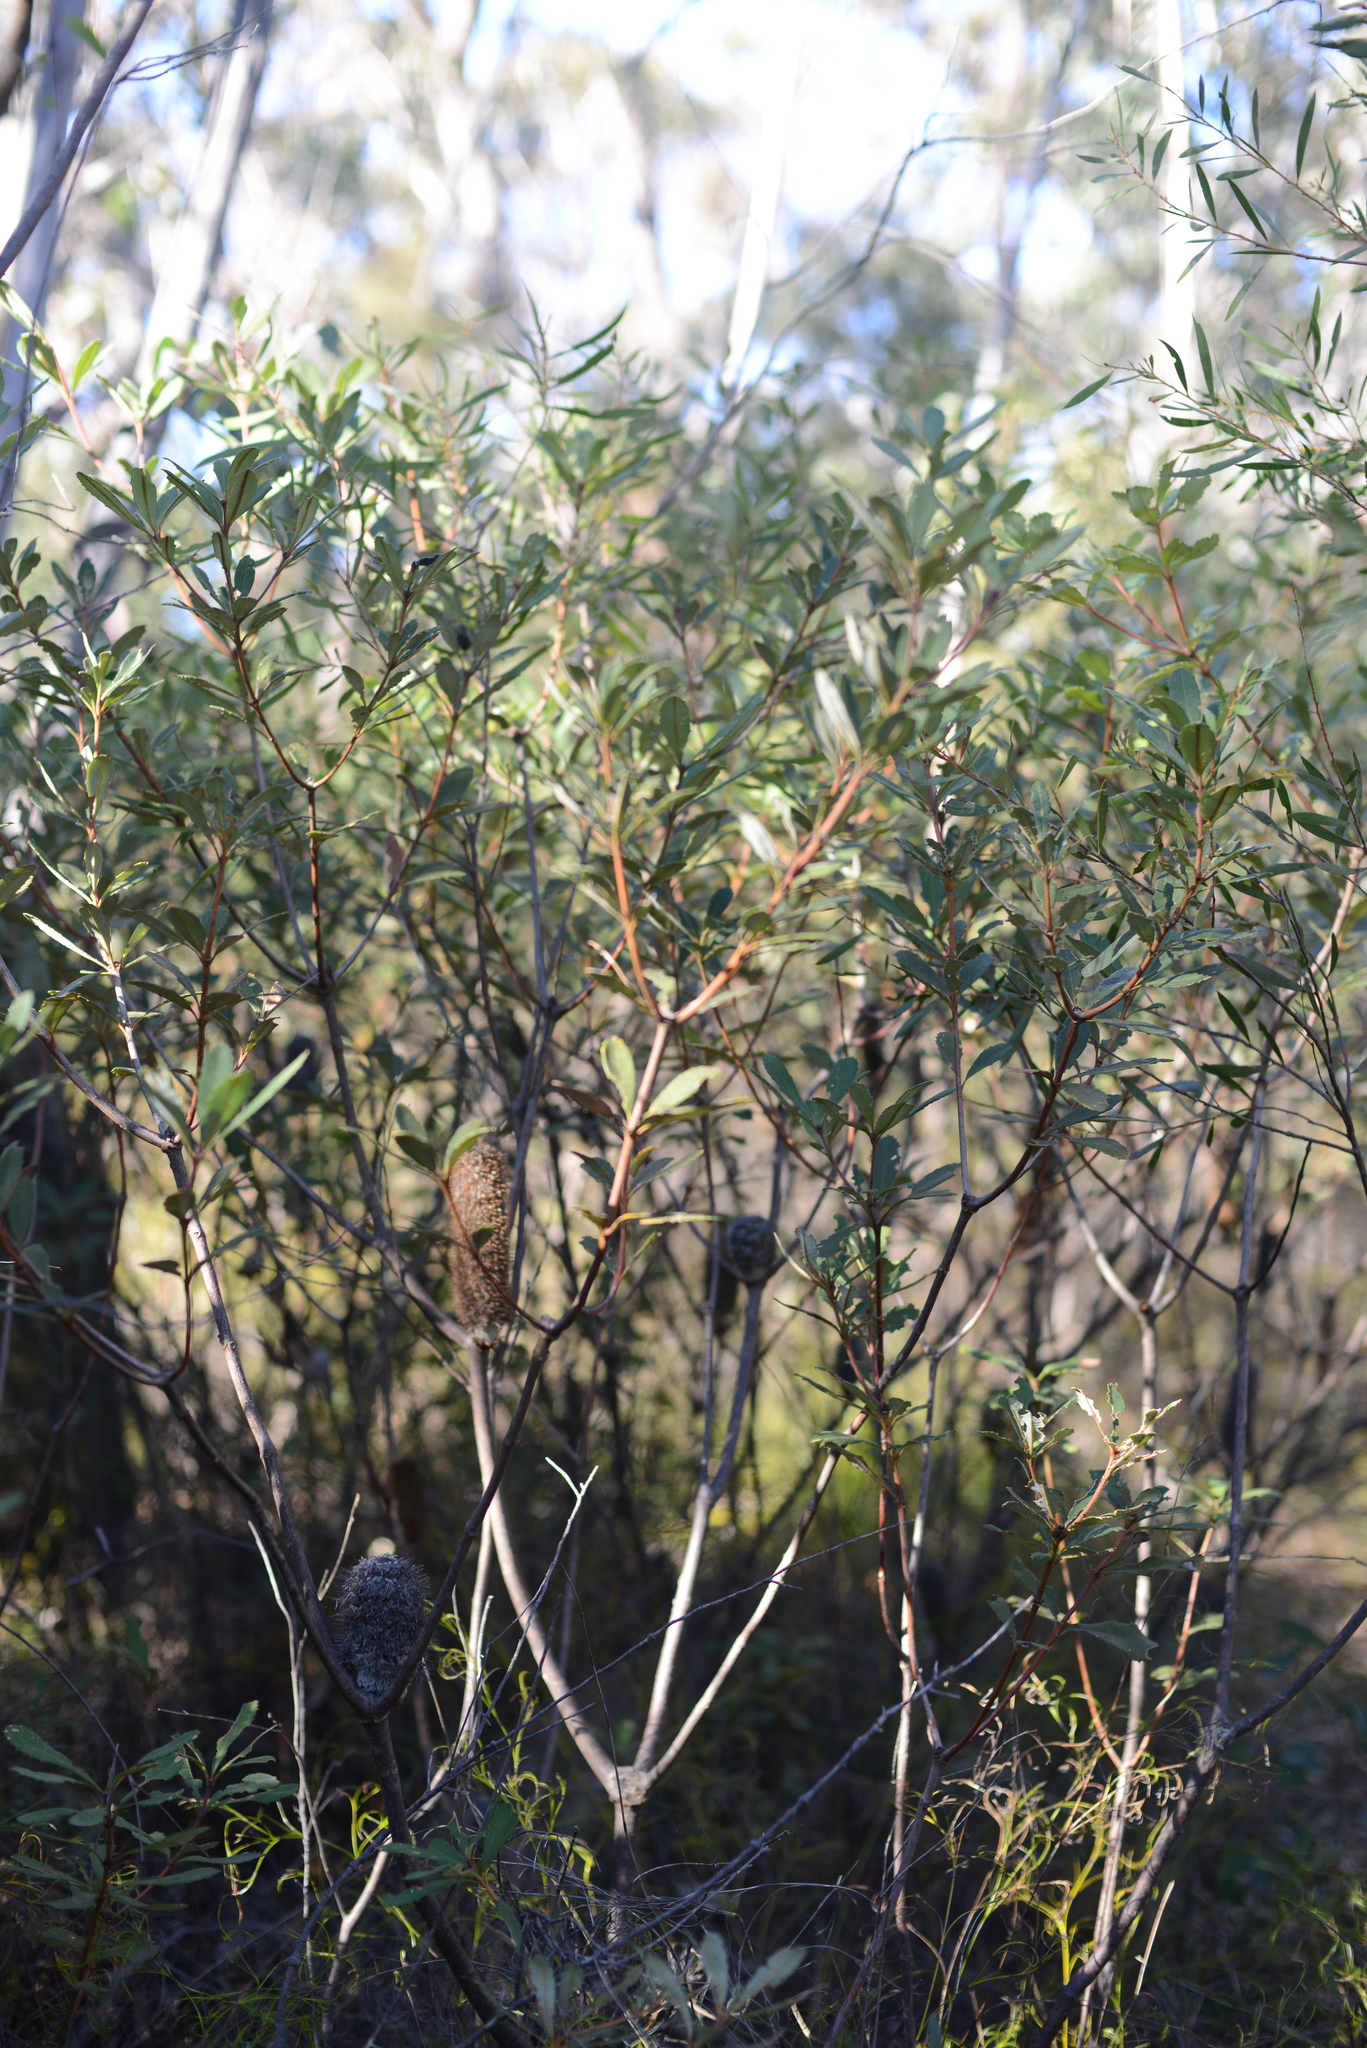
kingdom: Plantae
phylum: Tracheophyta
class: Magnoliopsida
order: Proteales
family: Proteaceae
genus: Banksia
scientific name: Banksia penicillata
